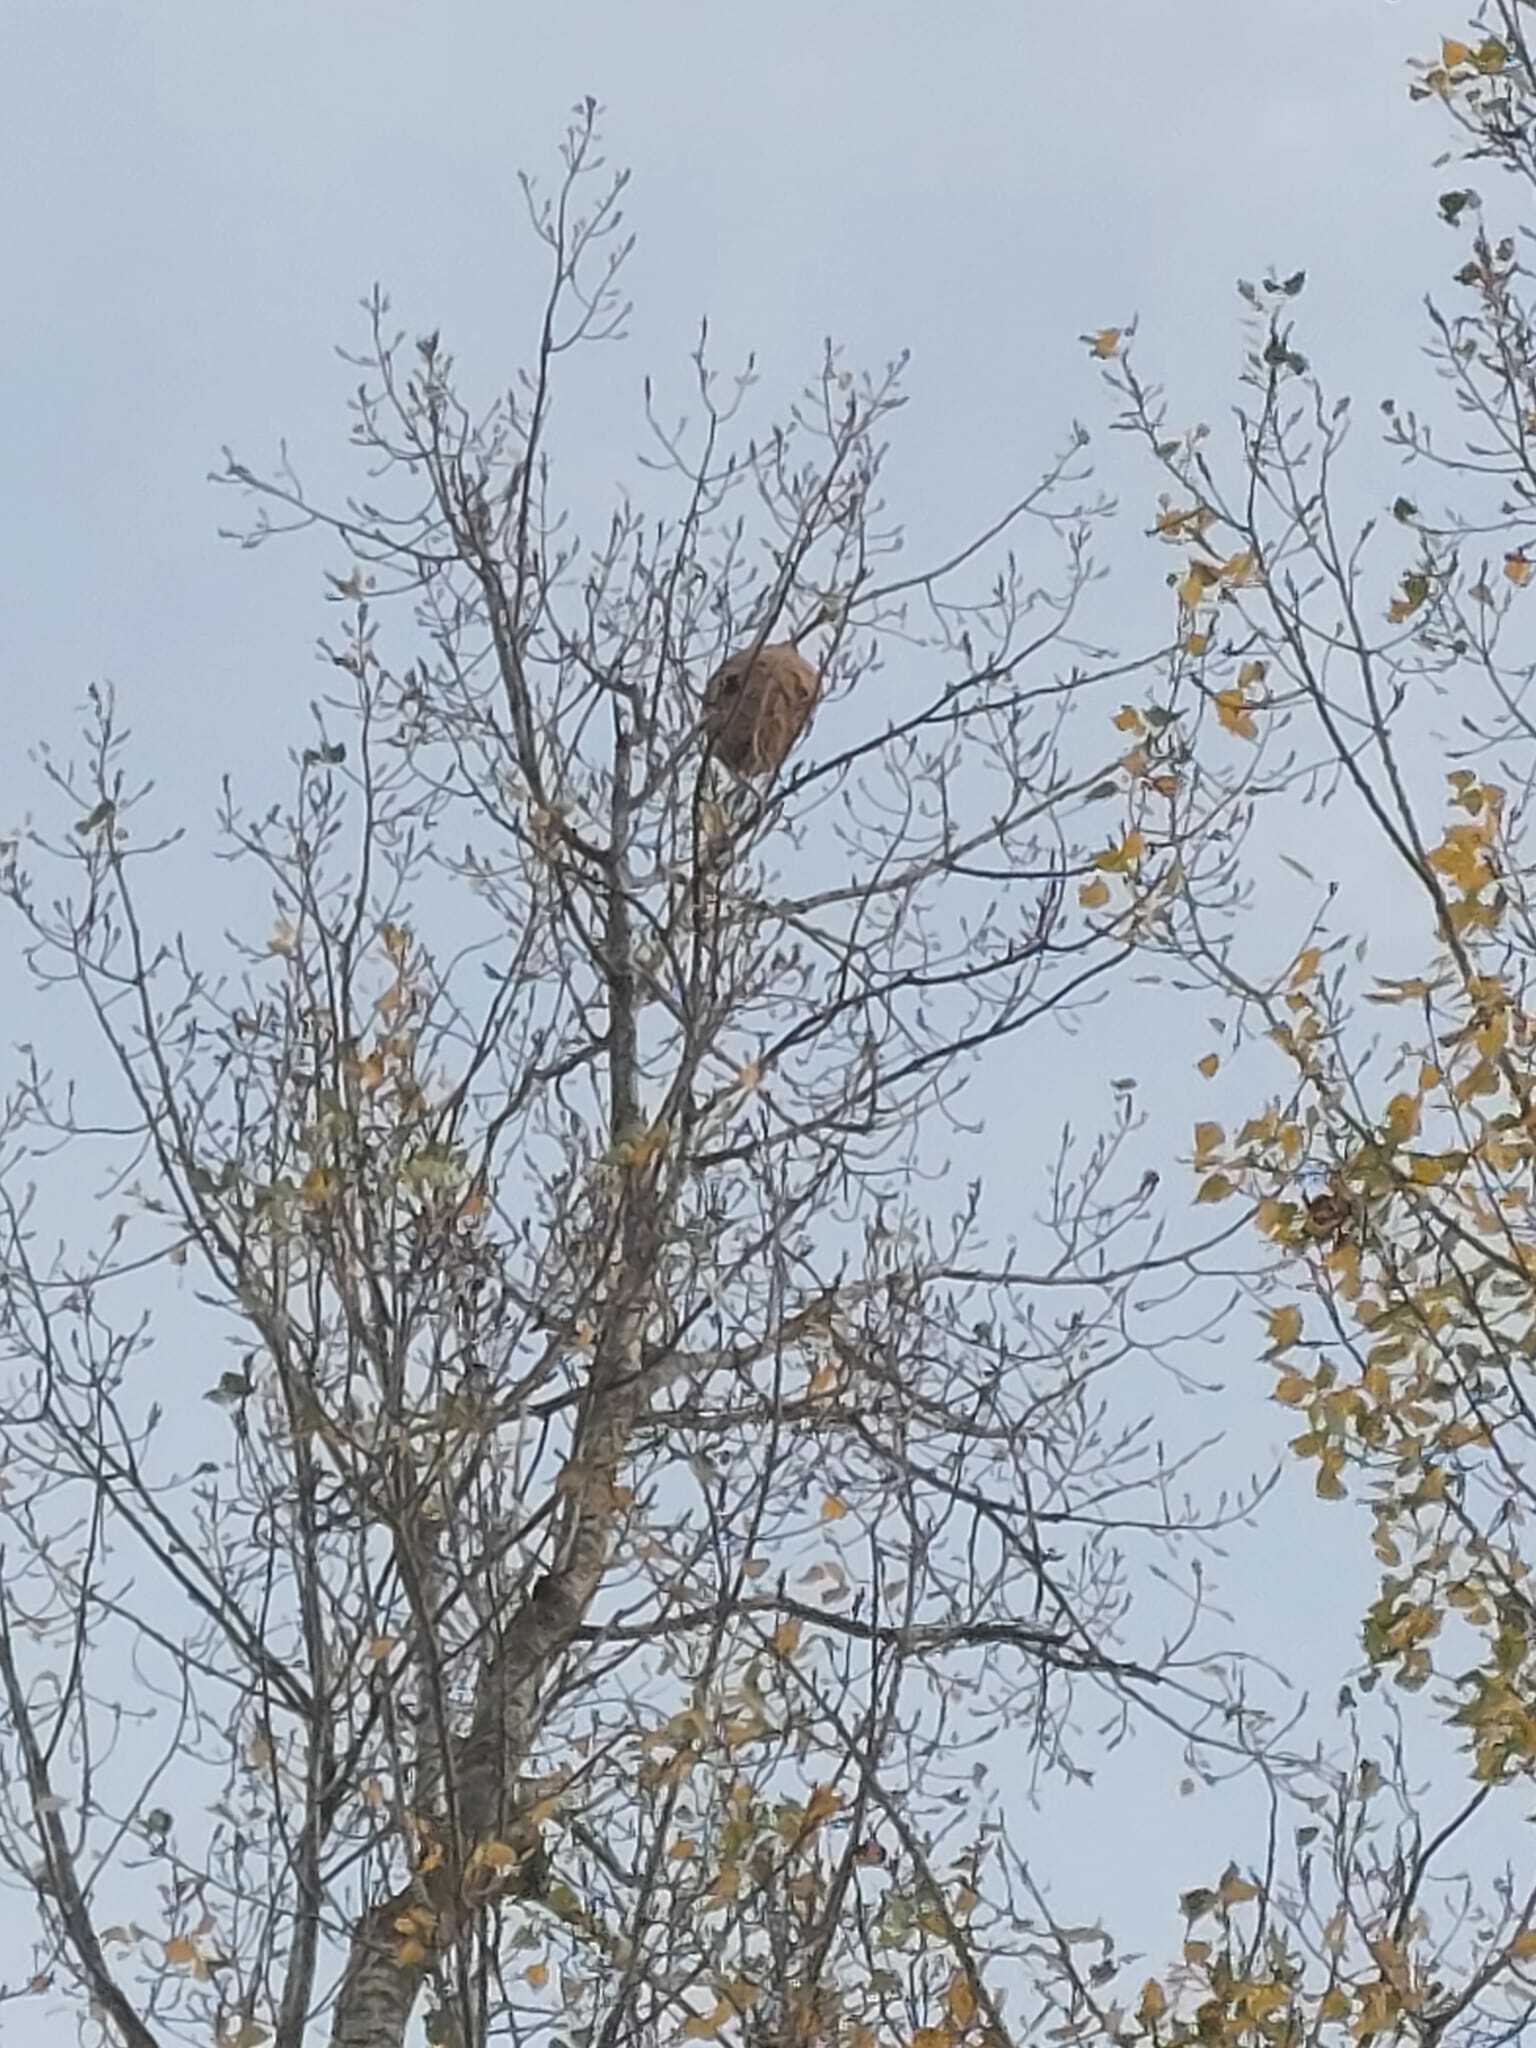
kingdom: Animalia
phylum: Arthropoda
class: Insecta
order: Hymenoptera
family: Vespidae
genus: Vespa
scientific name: Vespa velutina
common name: Asian hornet
